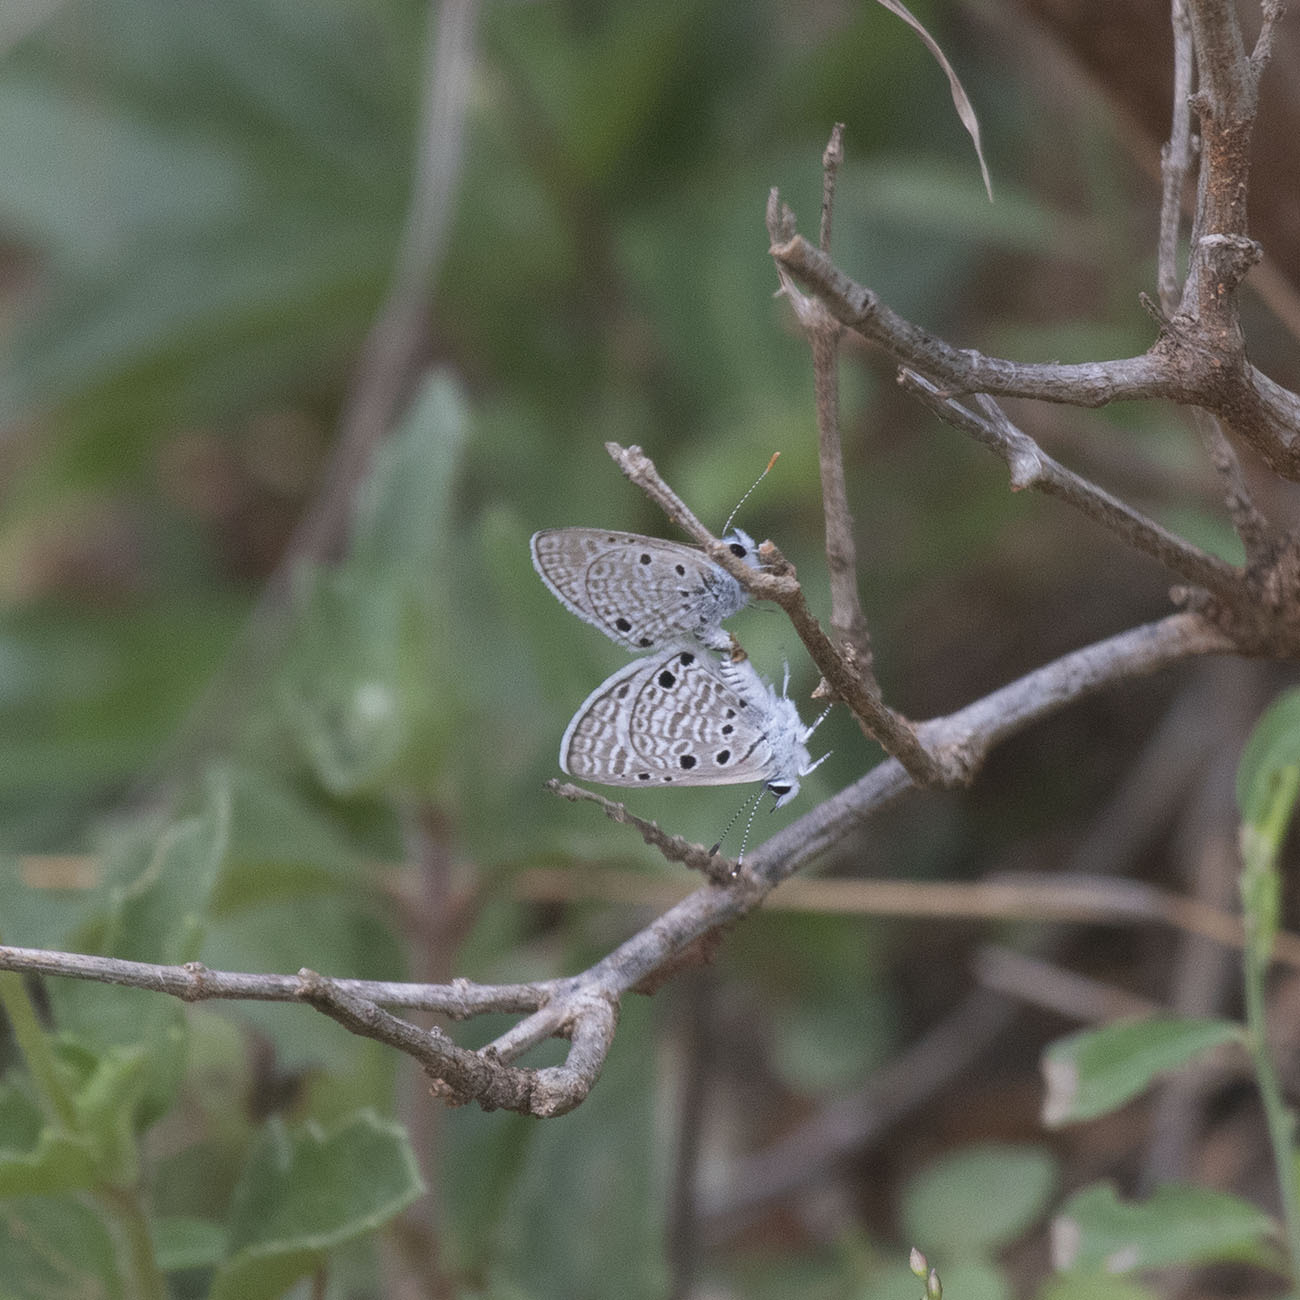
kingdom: Animalia
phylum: Arthropoda
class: Insecta
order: Lepidoptera
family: Lycaenidae
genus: Azanus
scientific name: Azanus ubaldus
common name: Desert babul blue
